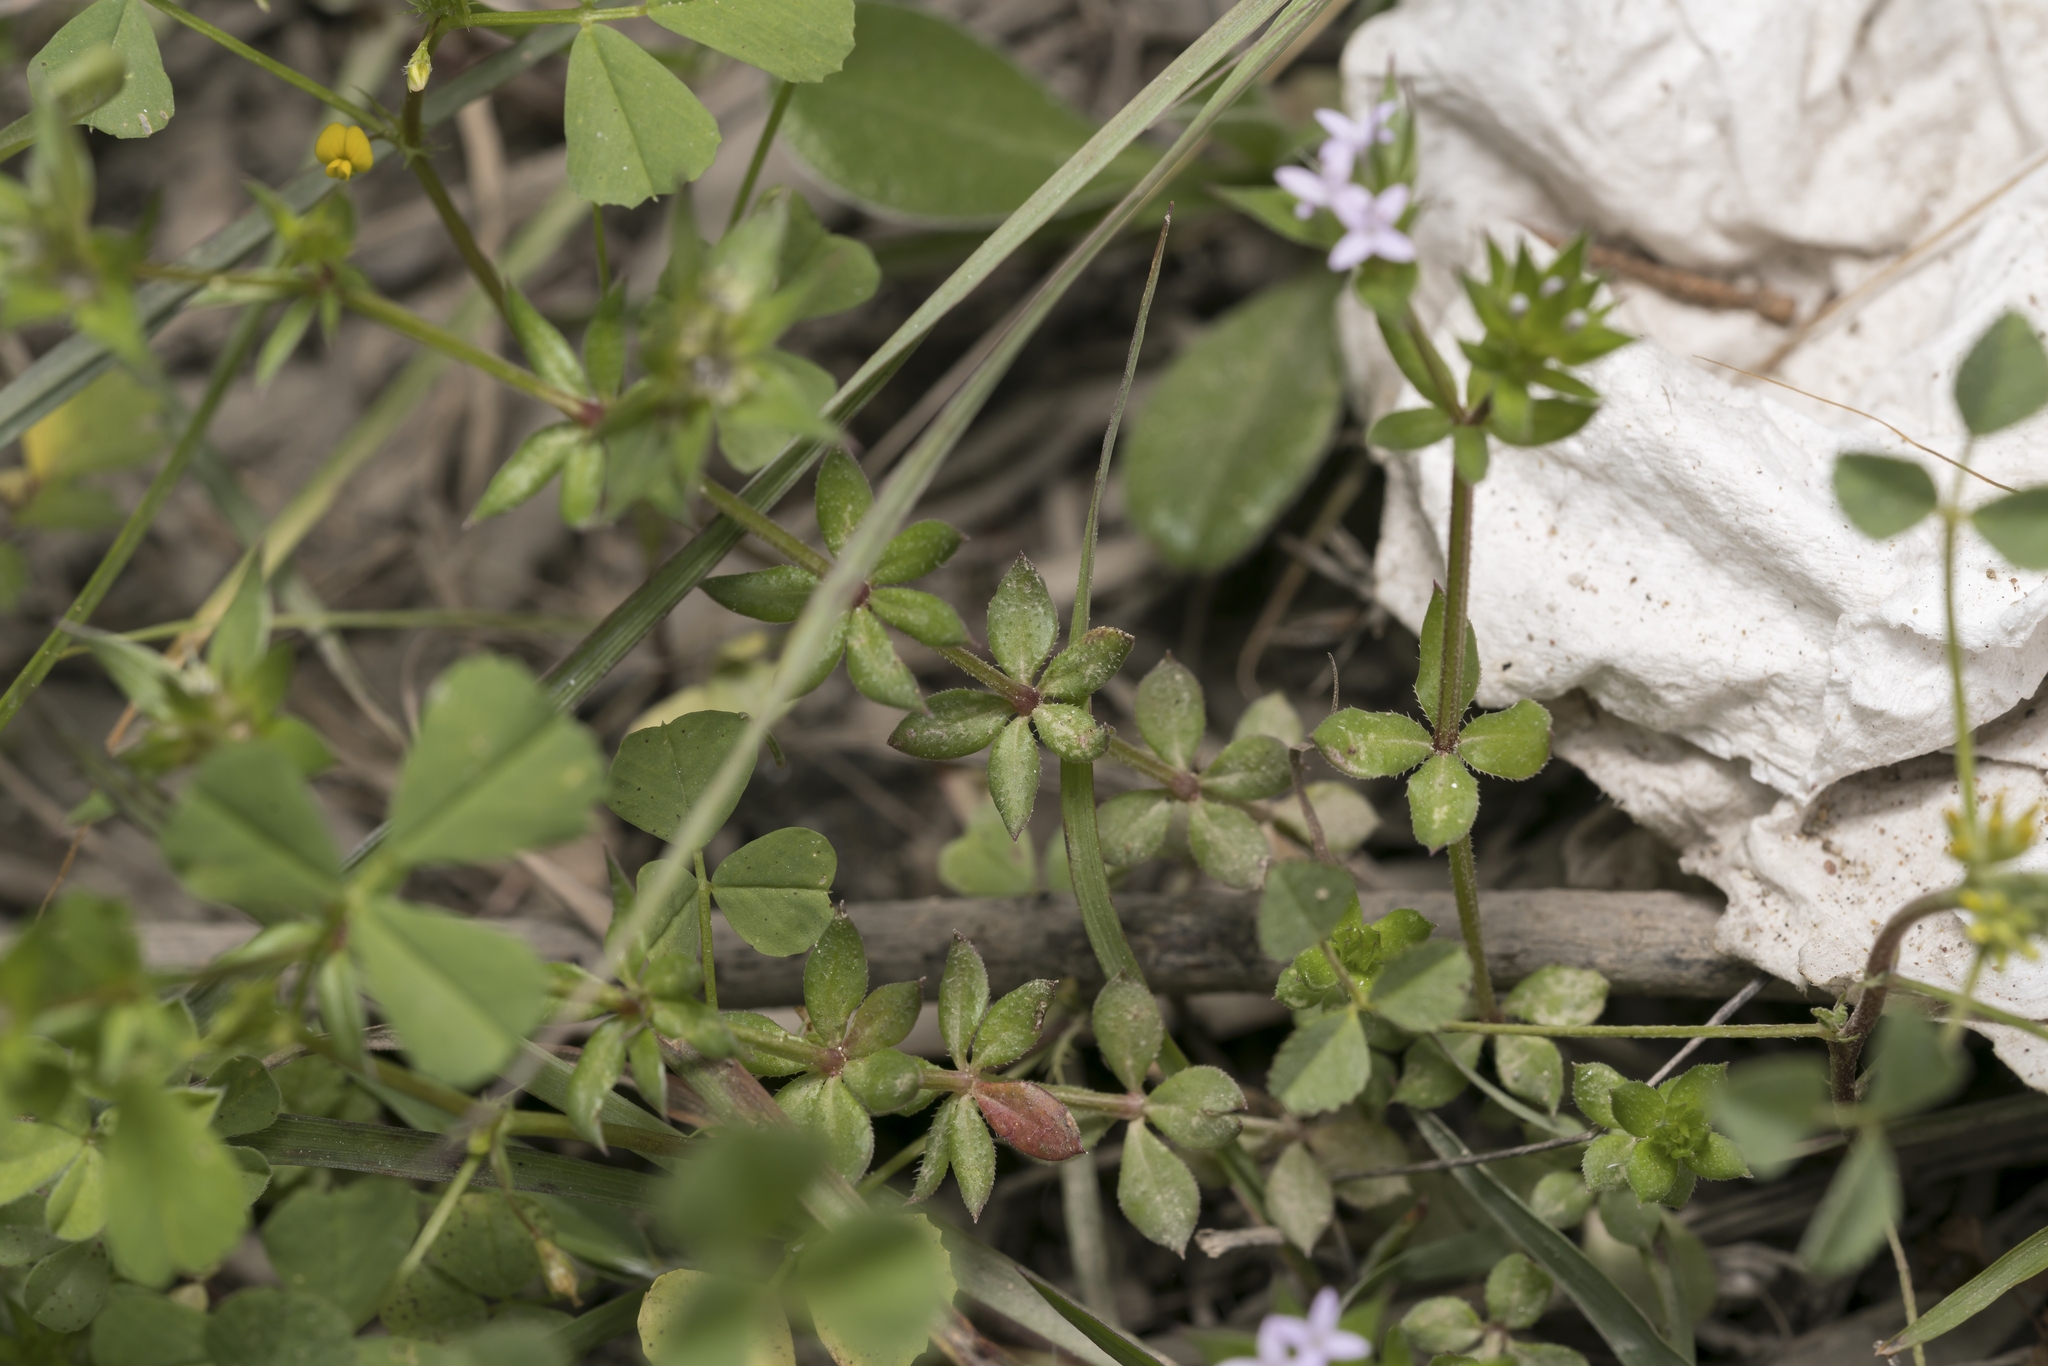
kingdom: Plantae
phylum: Tracheophyta
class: Magnoliopsida
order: Gentianales
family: Rubiaceae
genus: Sherardia
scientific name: Sherardia arvensis
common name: Field madder
